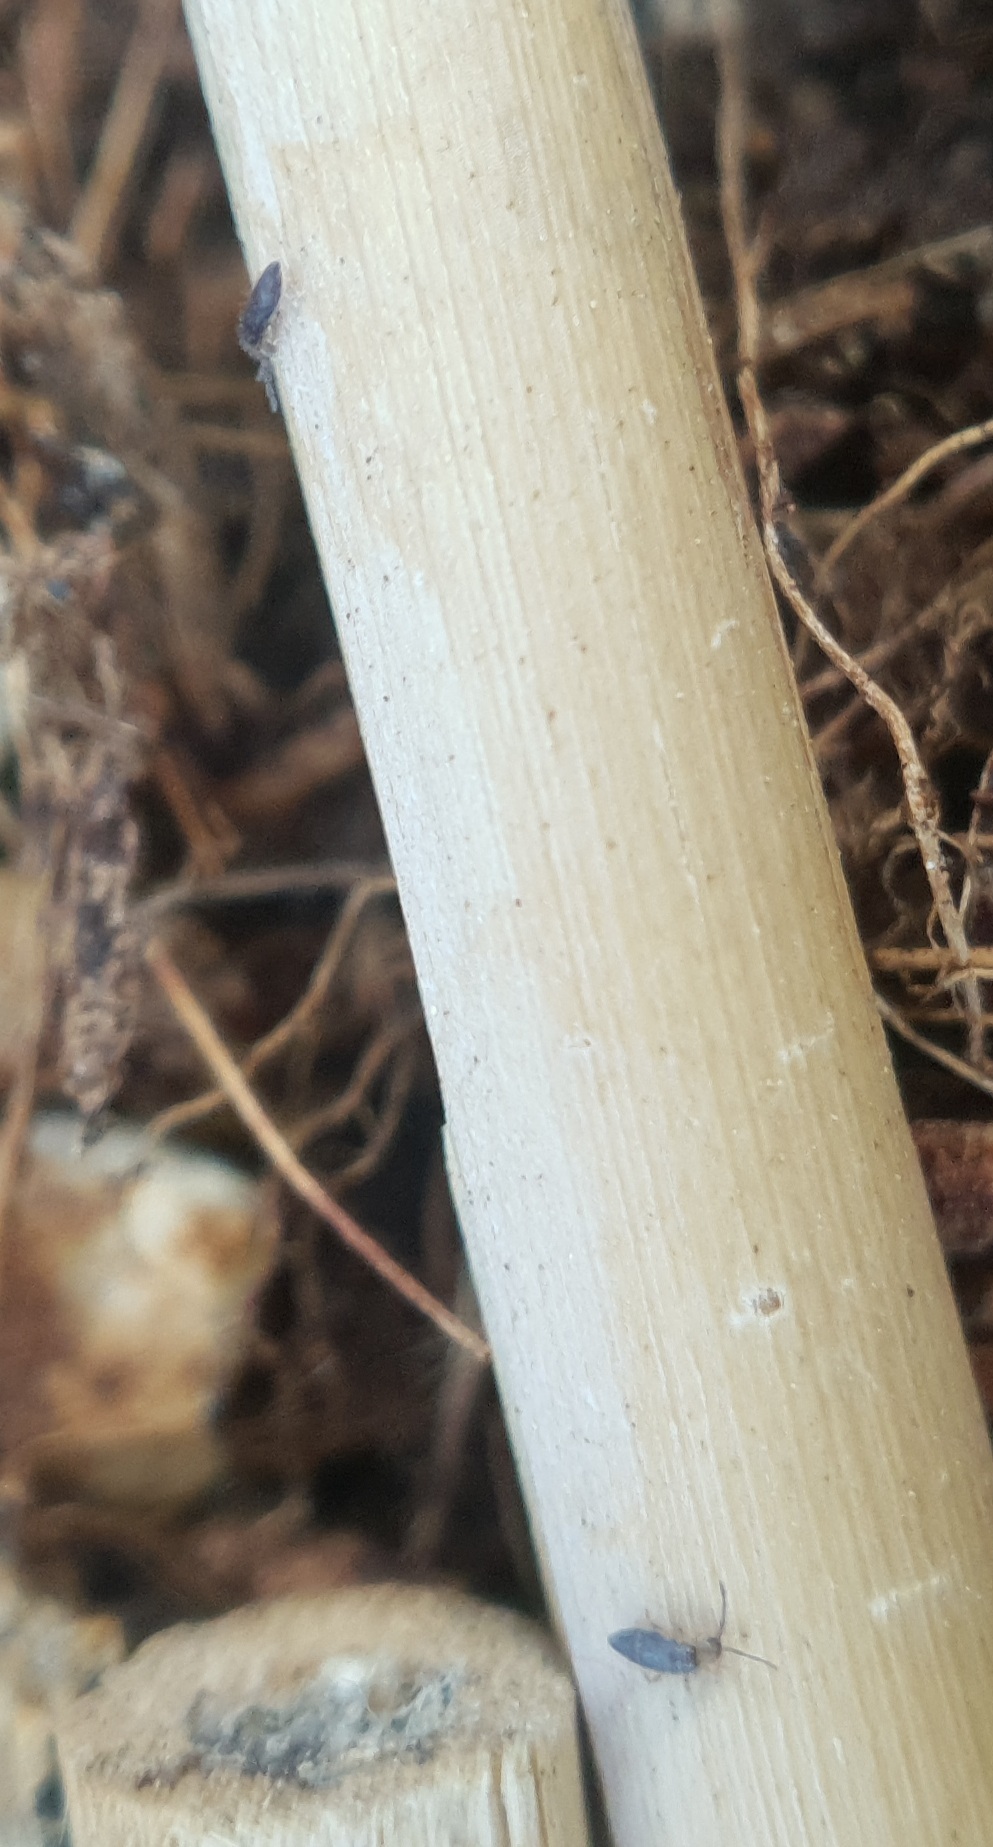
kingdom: Animalia
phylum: Arthropoda
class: Collembola
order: Entomobryomorpha
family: Entomobryidae
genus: Willowsia
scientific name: Willowsia buski
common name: Damp grain springtail
